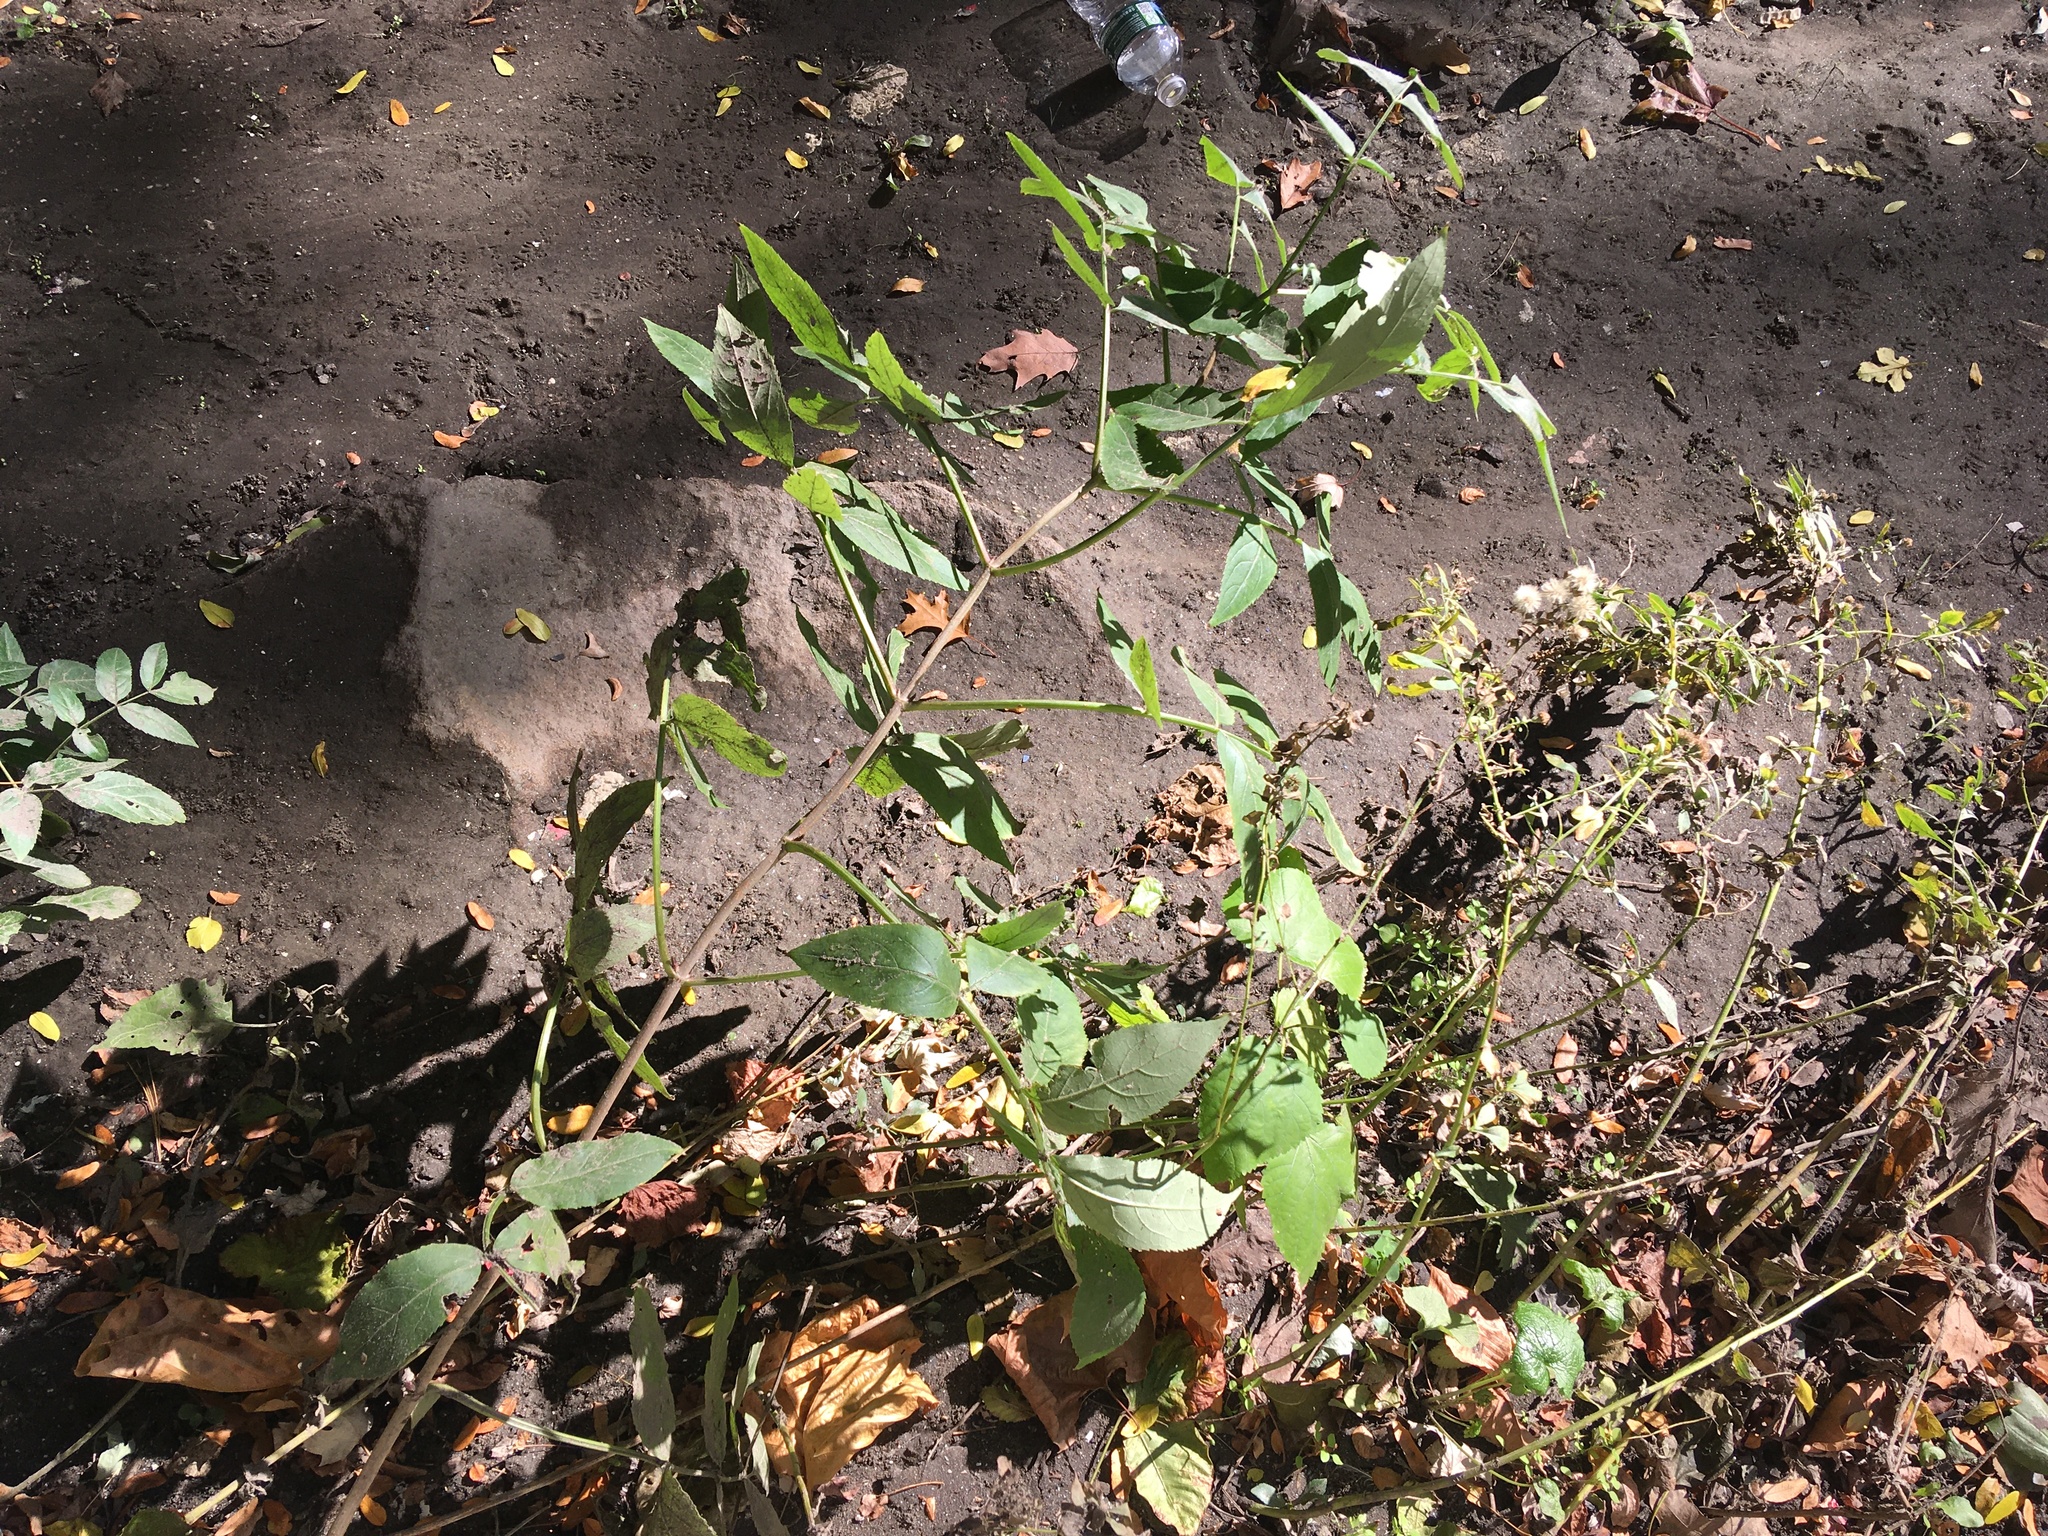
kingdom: Plantae
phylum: Tracheophyta
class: Magnoliopsida
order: Dipsacales
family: Viburnaceae
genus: Sambucus
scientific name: Sambucus canadensis
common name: American elder
